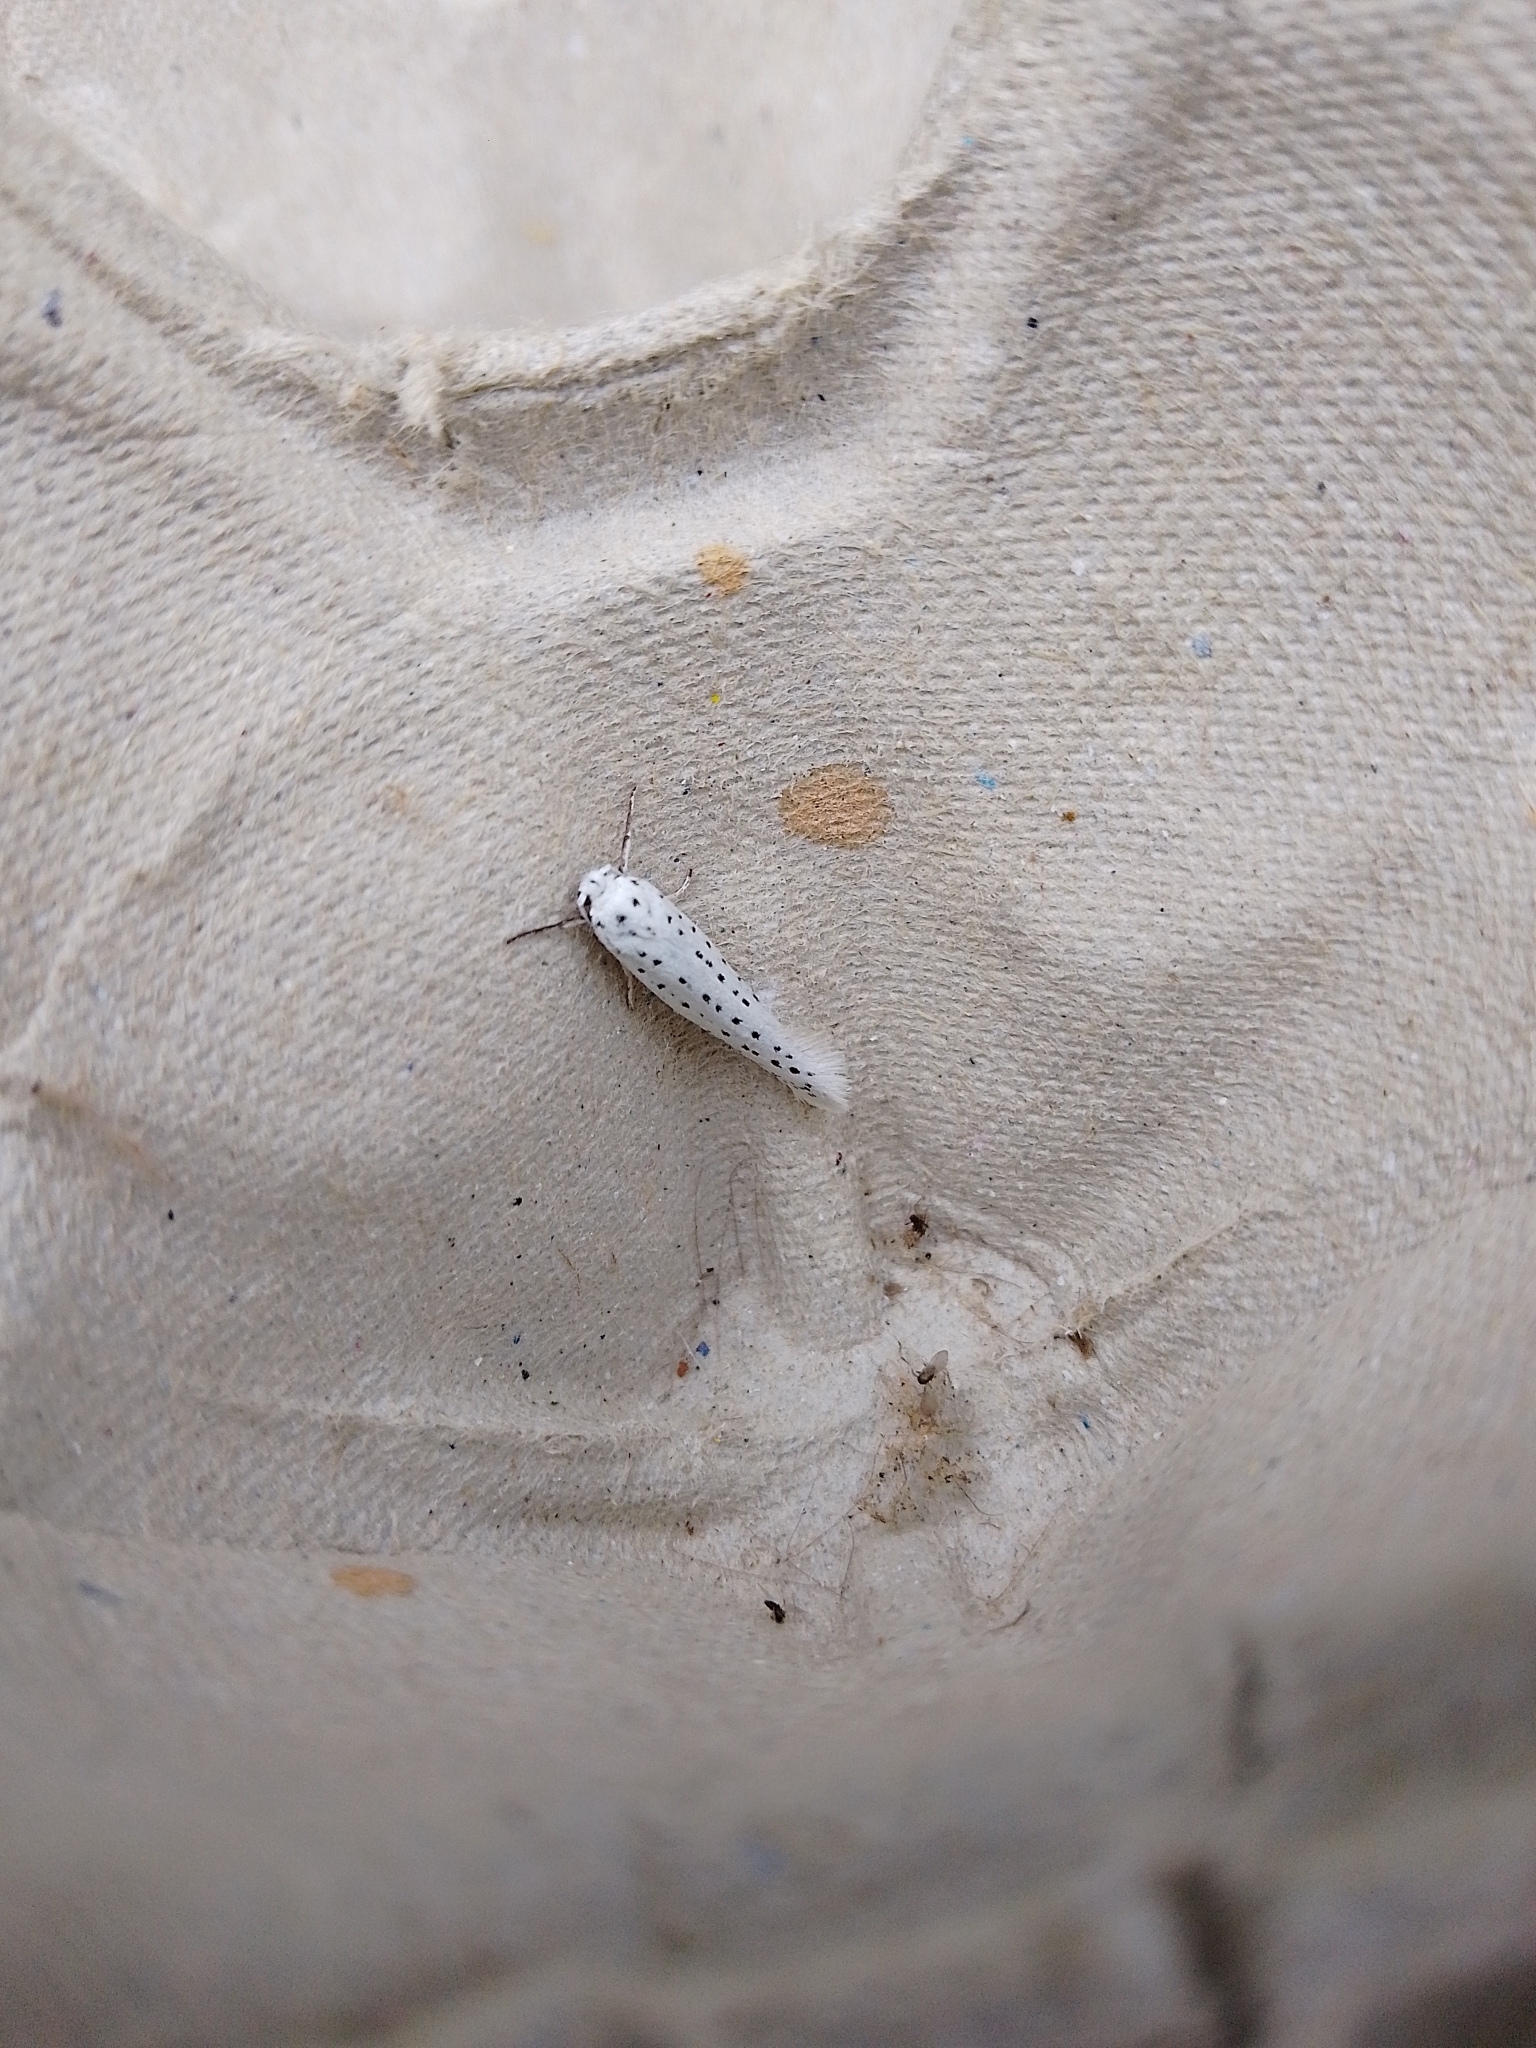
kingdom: Animalia
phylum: Arthropoda
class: Insecta
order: Lepidoptera
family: Yponomeutidae
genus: Yponomeuta
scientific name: Yponomeuta evonymella
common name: Bird-cherry ermine
